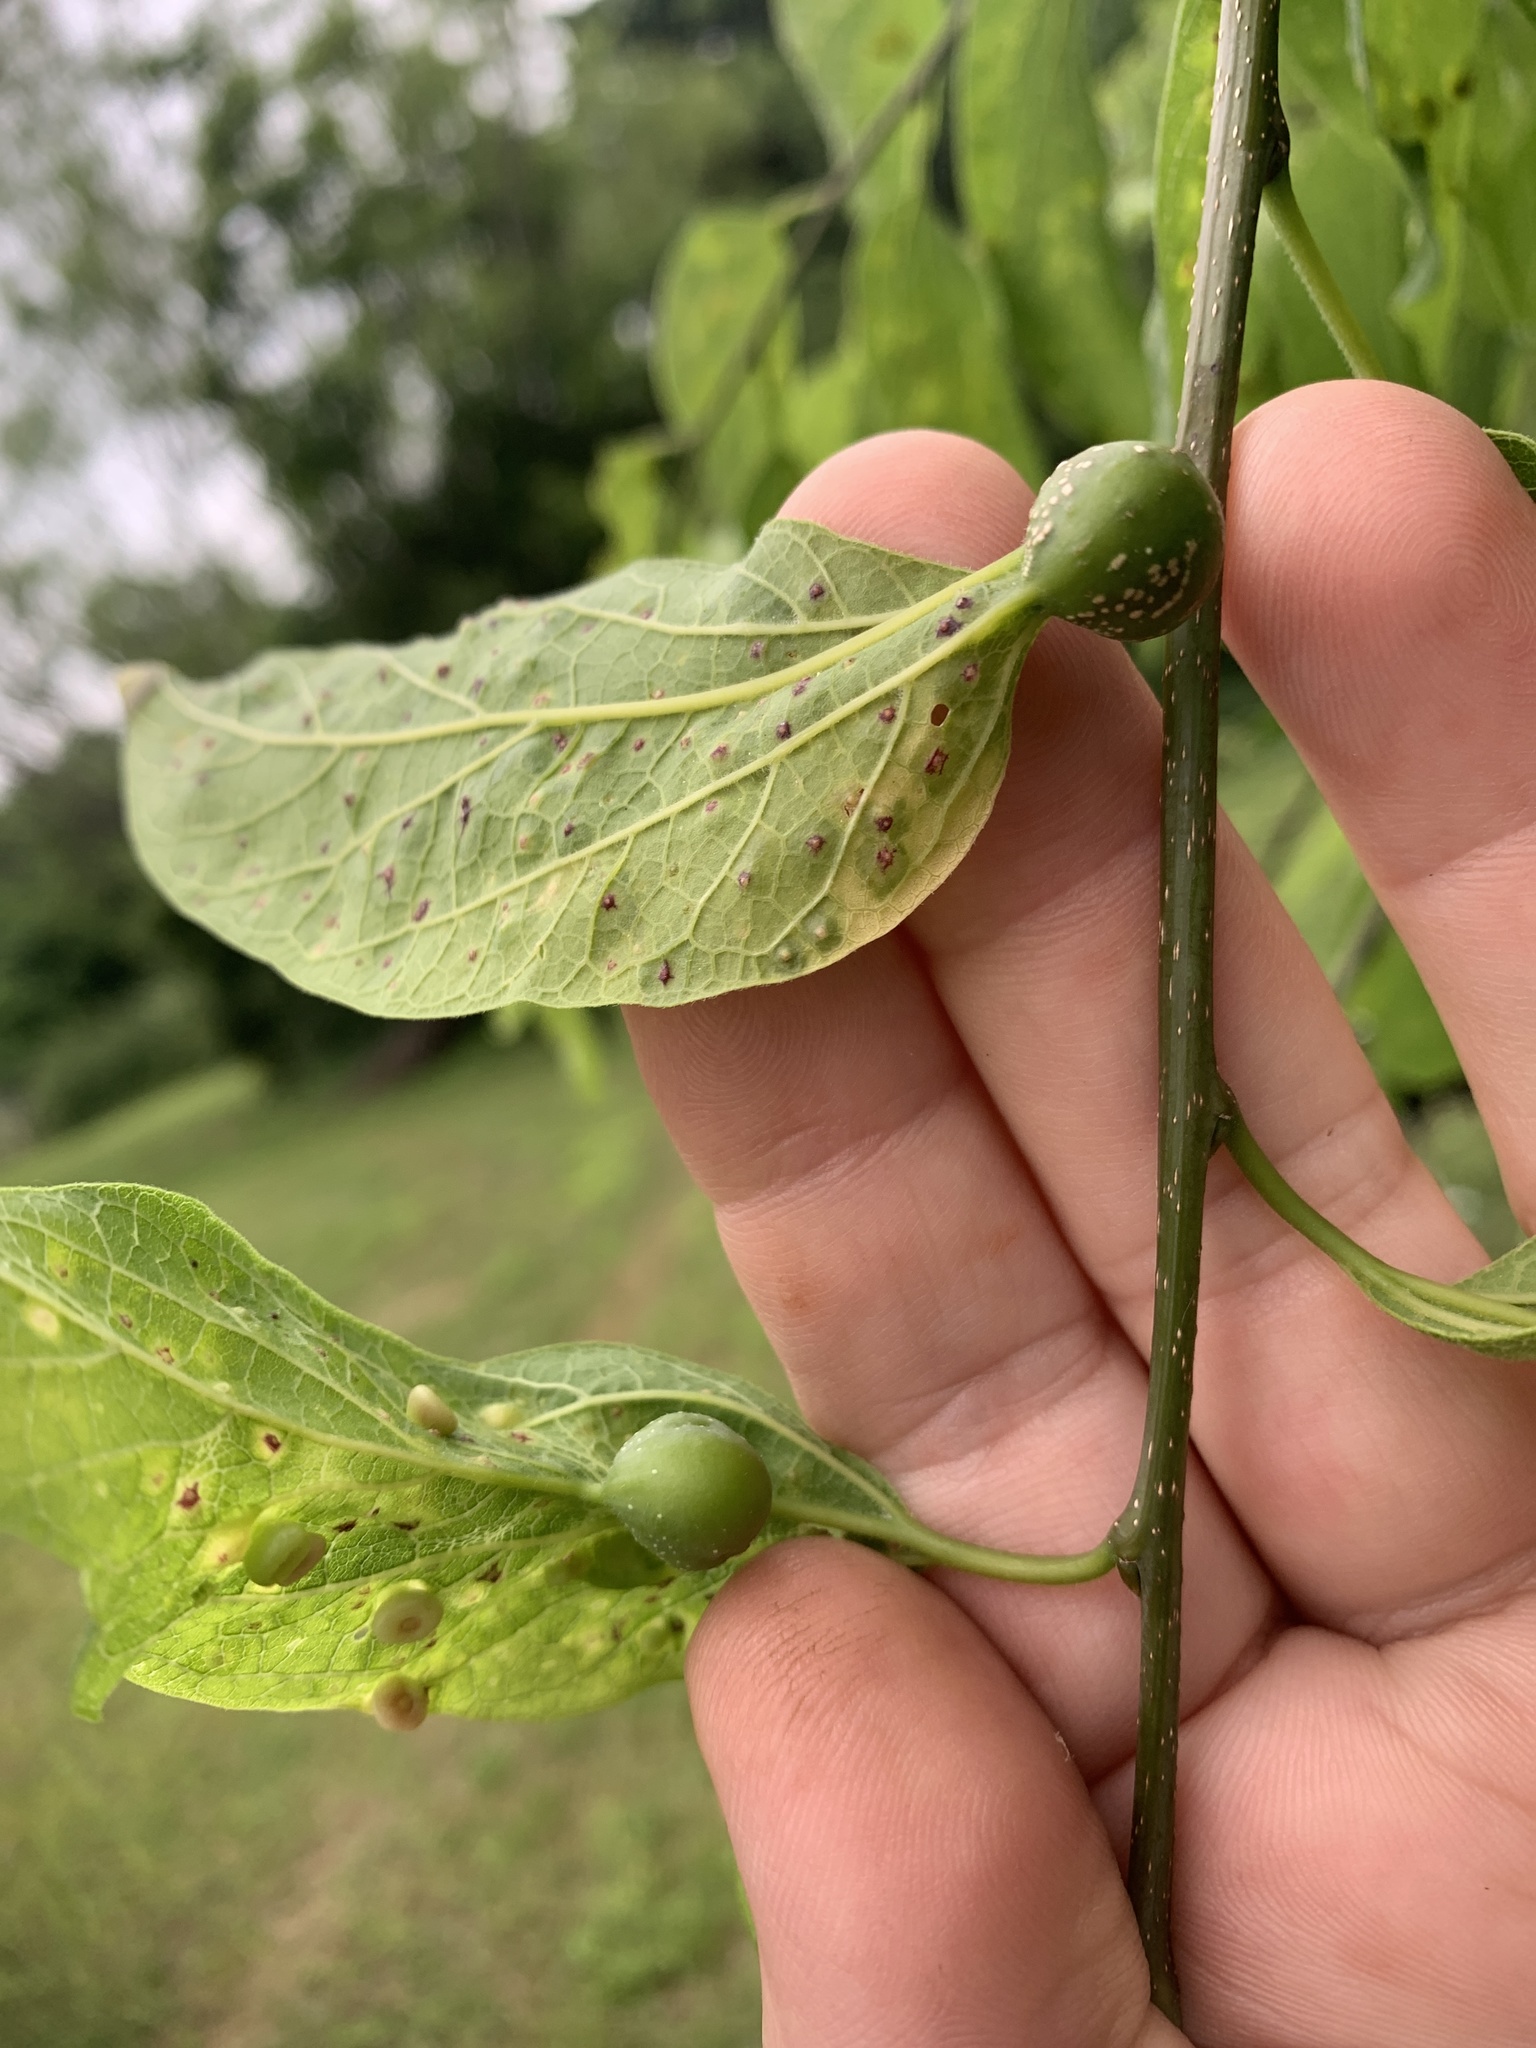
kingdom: Animalia
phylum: Arthropoda
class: Insecta
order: Hemiptera
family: Aphalaridae
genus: Pachypsylla
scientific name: Pachypsylla venusta
